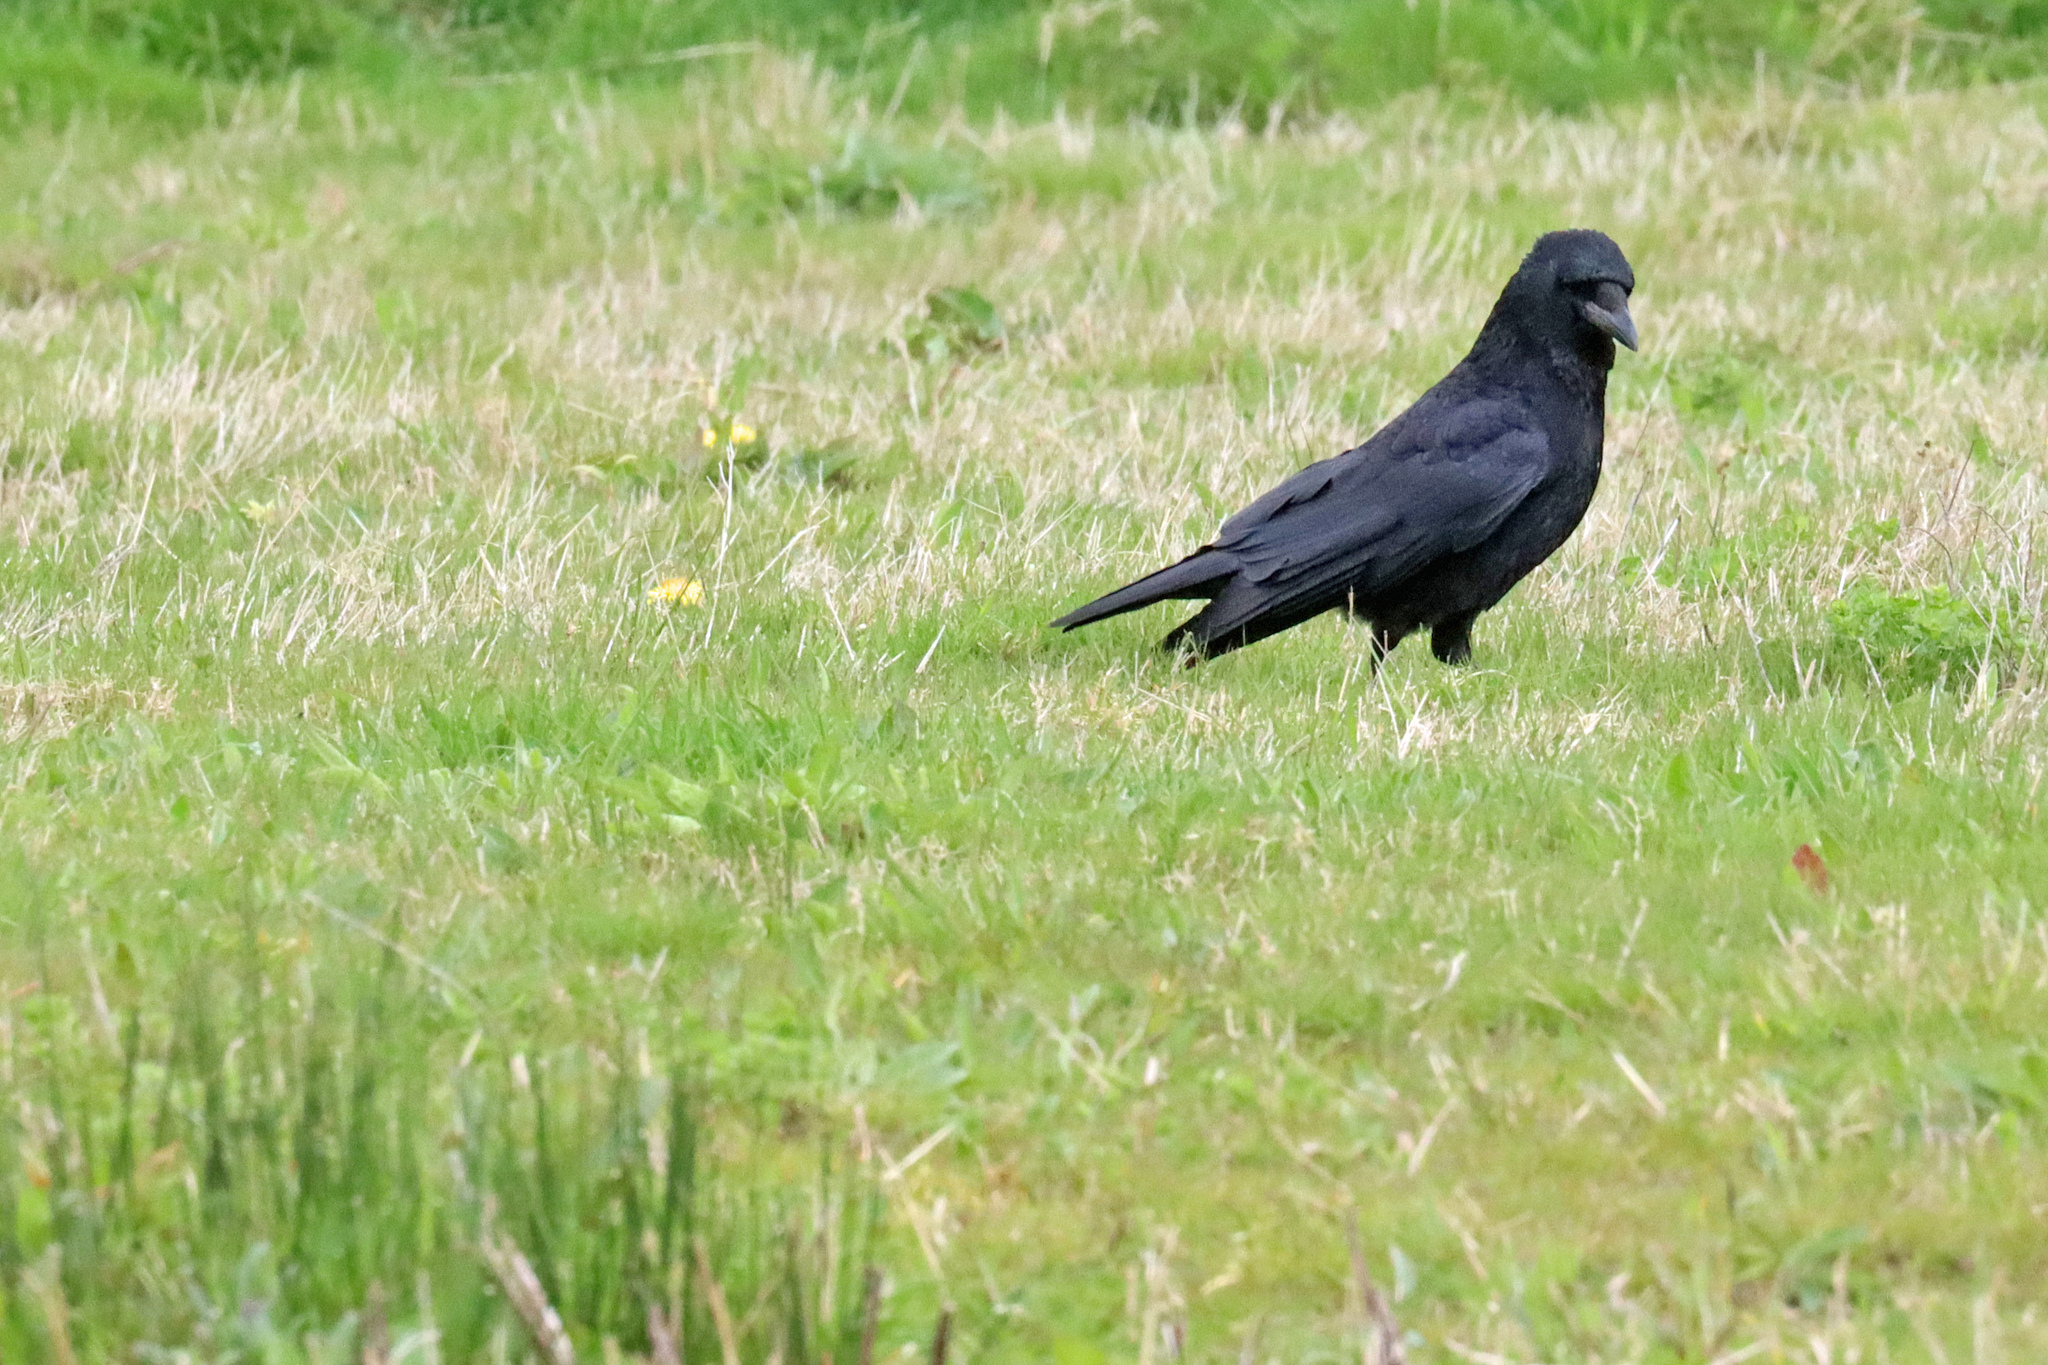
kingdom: Animalia
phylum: Chordata
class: Aves
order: Passeriformes
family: Corvidae
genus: Corvus
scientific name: Corvus corone
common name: Carrion crow
